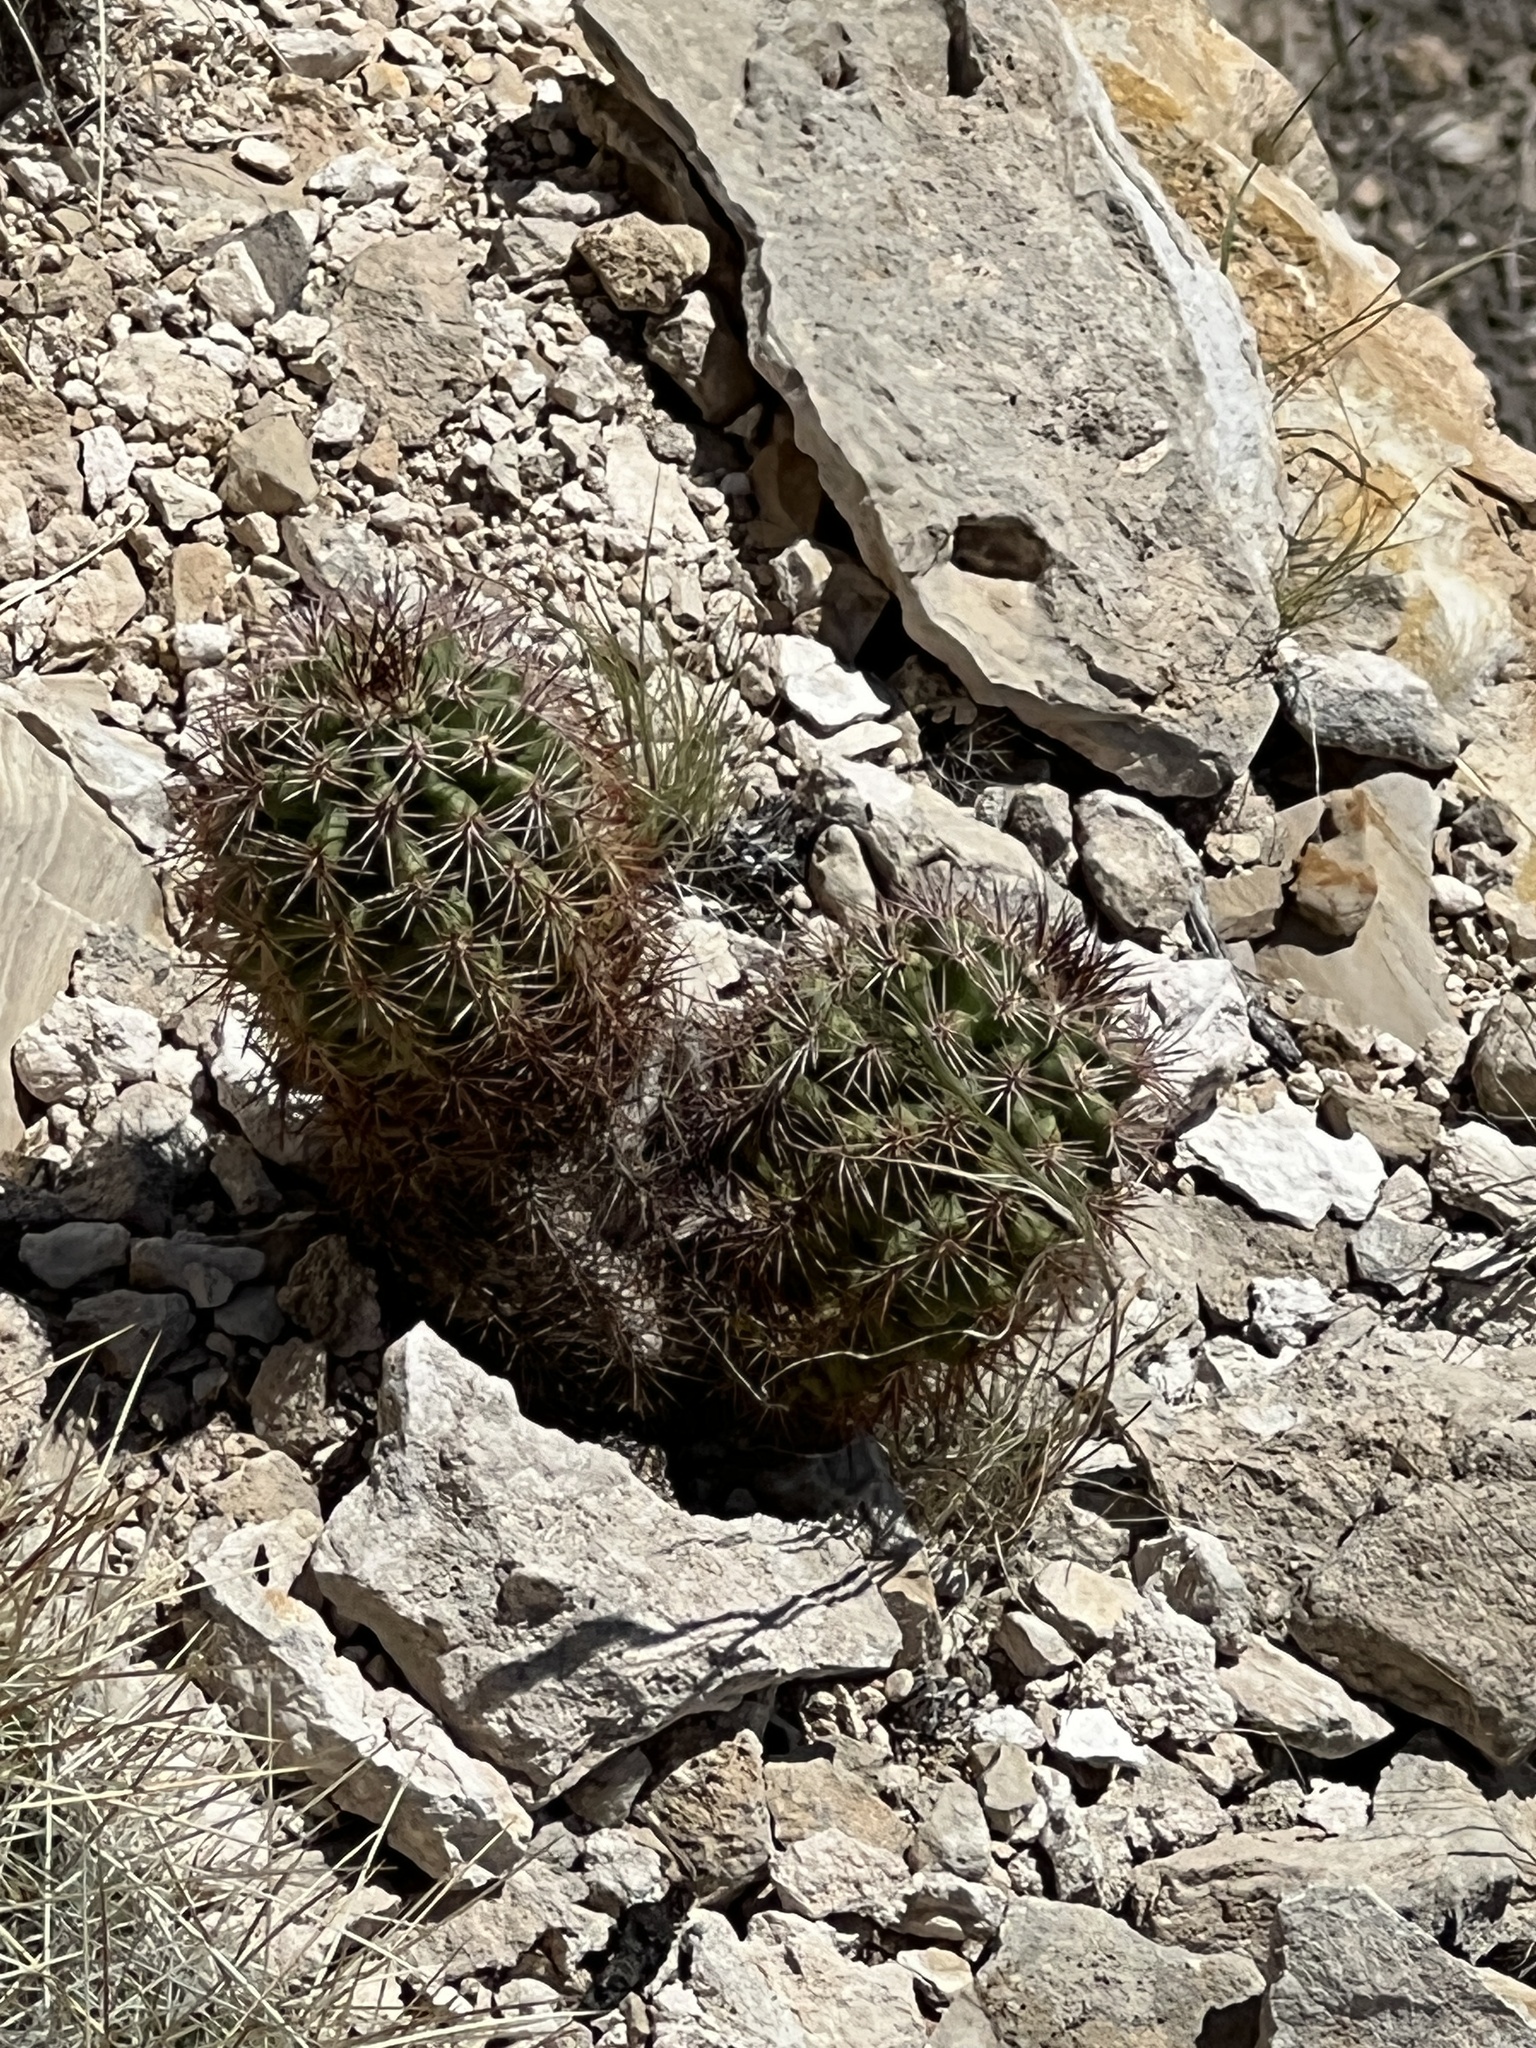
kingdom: Plantae
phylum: Tracheophyta
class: Magnoliopsida
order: Caryophyllales
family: Cactaceae
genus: Echinocereus
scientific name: Echinocereus roetteri
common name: Lloyd's hedgehog cactus
